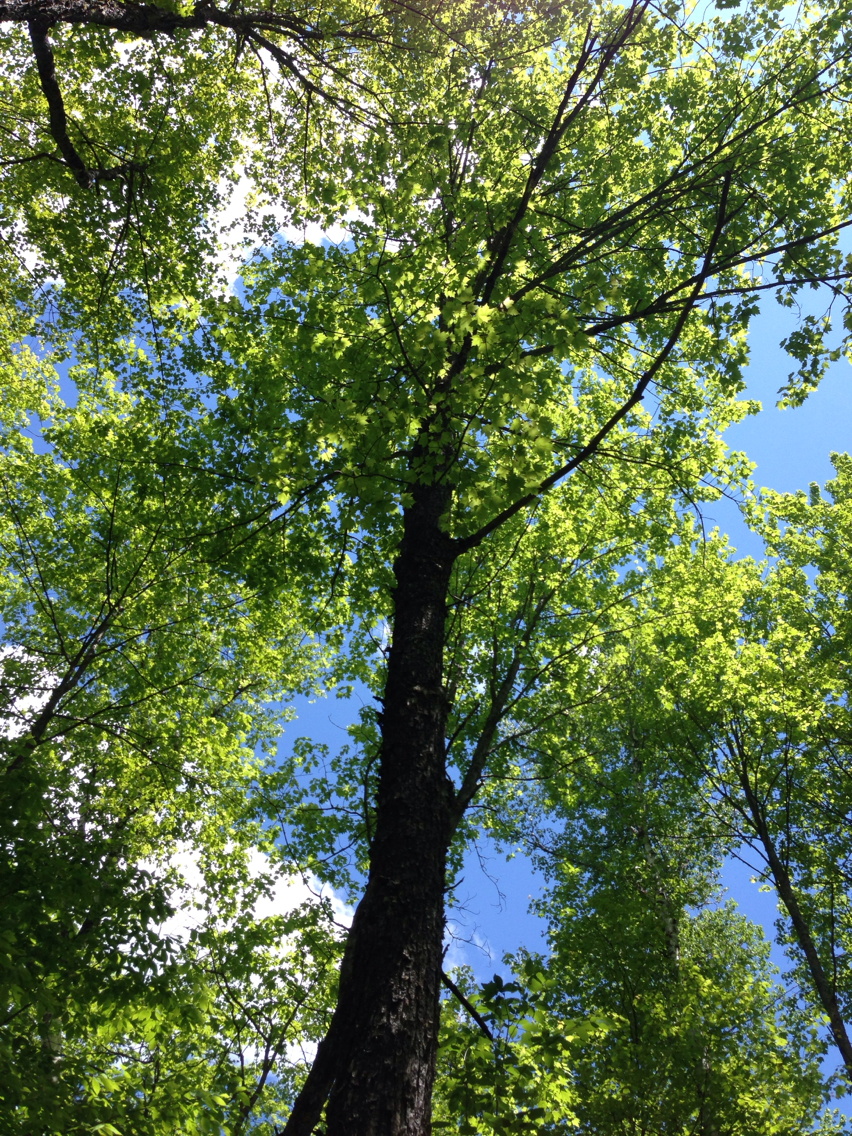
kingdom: Plantae
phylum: Tracheophyta
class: Magnoliopsida
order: Sapindales
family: Sapindaceae
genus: Acer
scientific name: Acer saccharum
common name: Sugar maple
